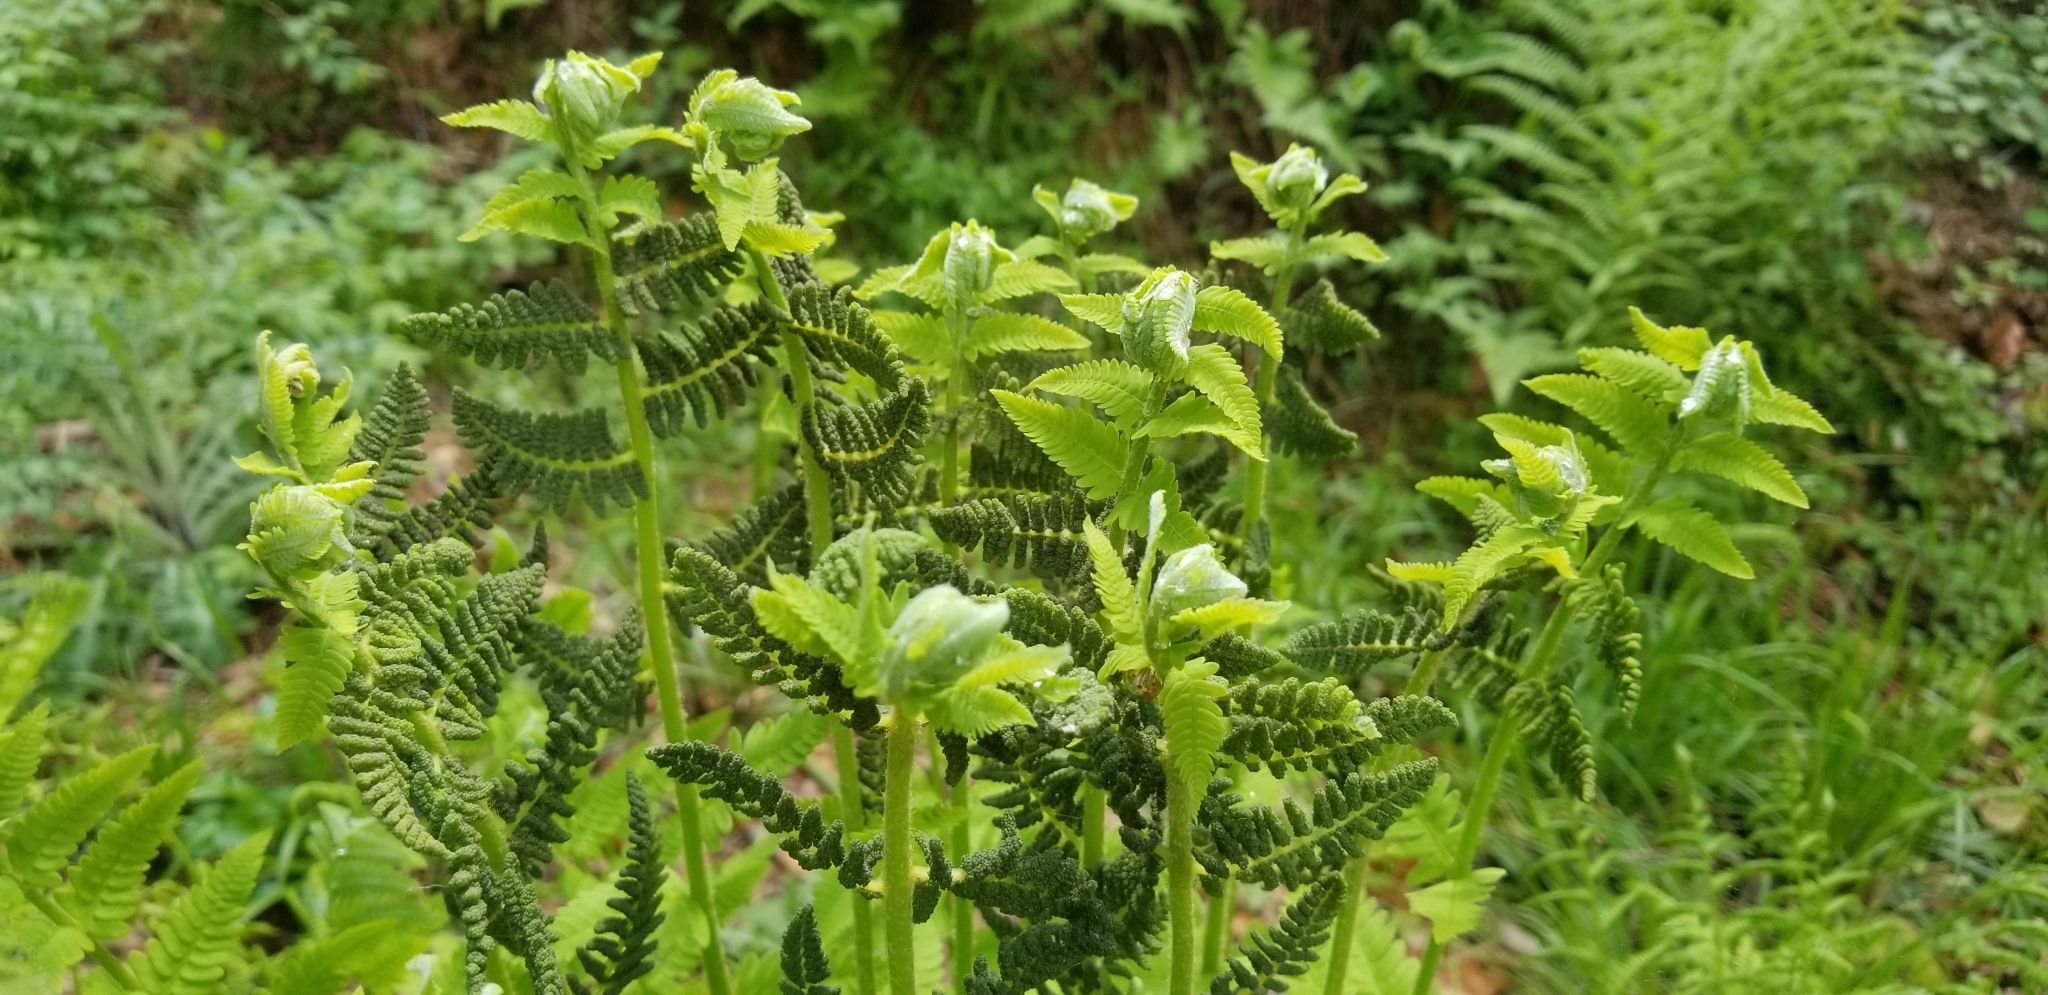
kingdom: Plantae
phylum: Tracheophyta
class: Polypodiopsida
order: Osmundales
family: Osmundaceae
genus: Claytosmunda
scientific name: Claytosmunda claytoniana
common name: Clayton's fern
